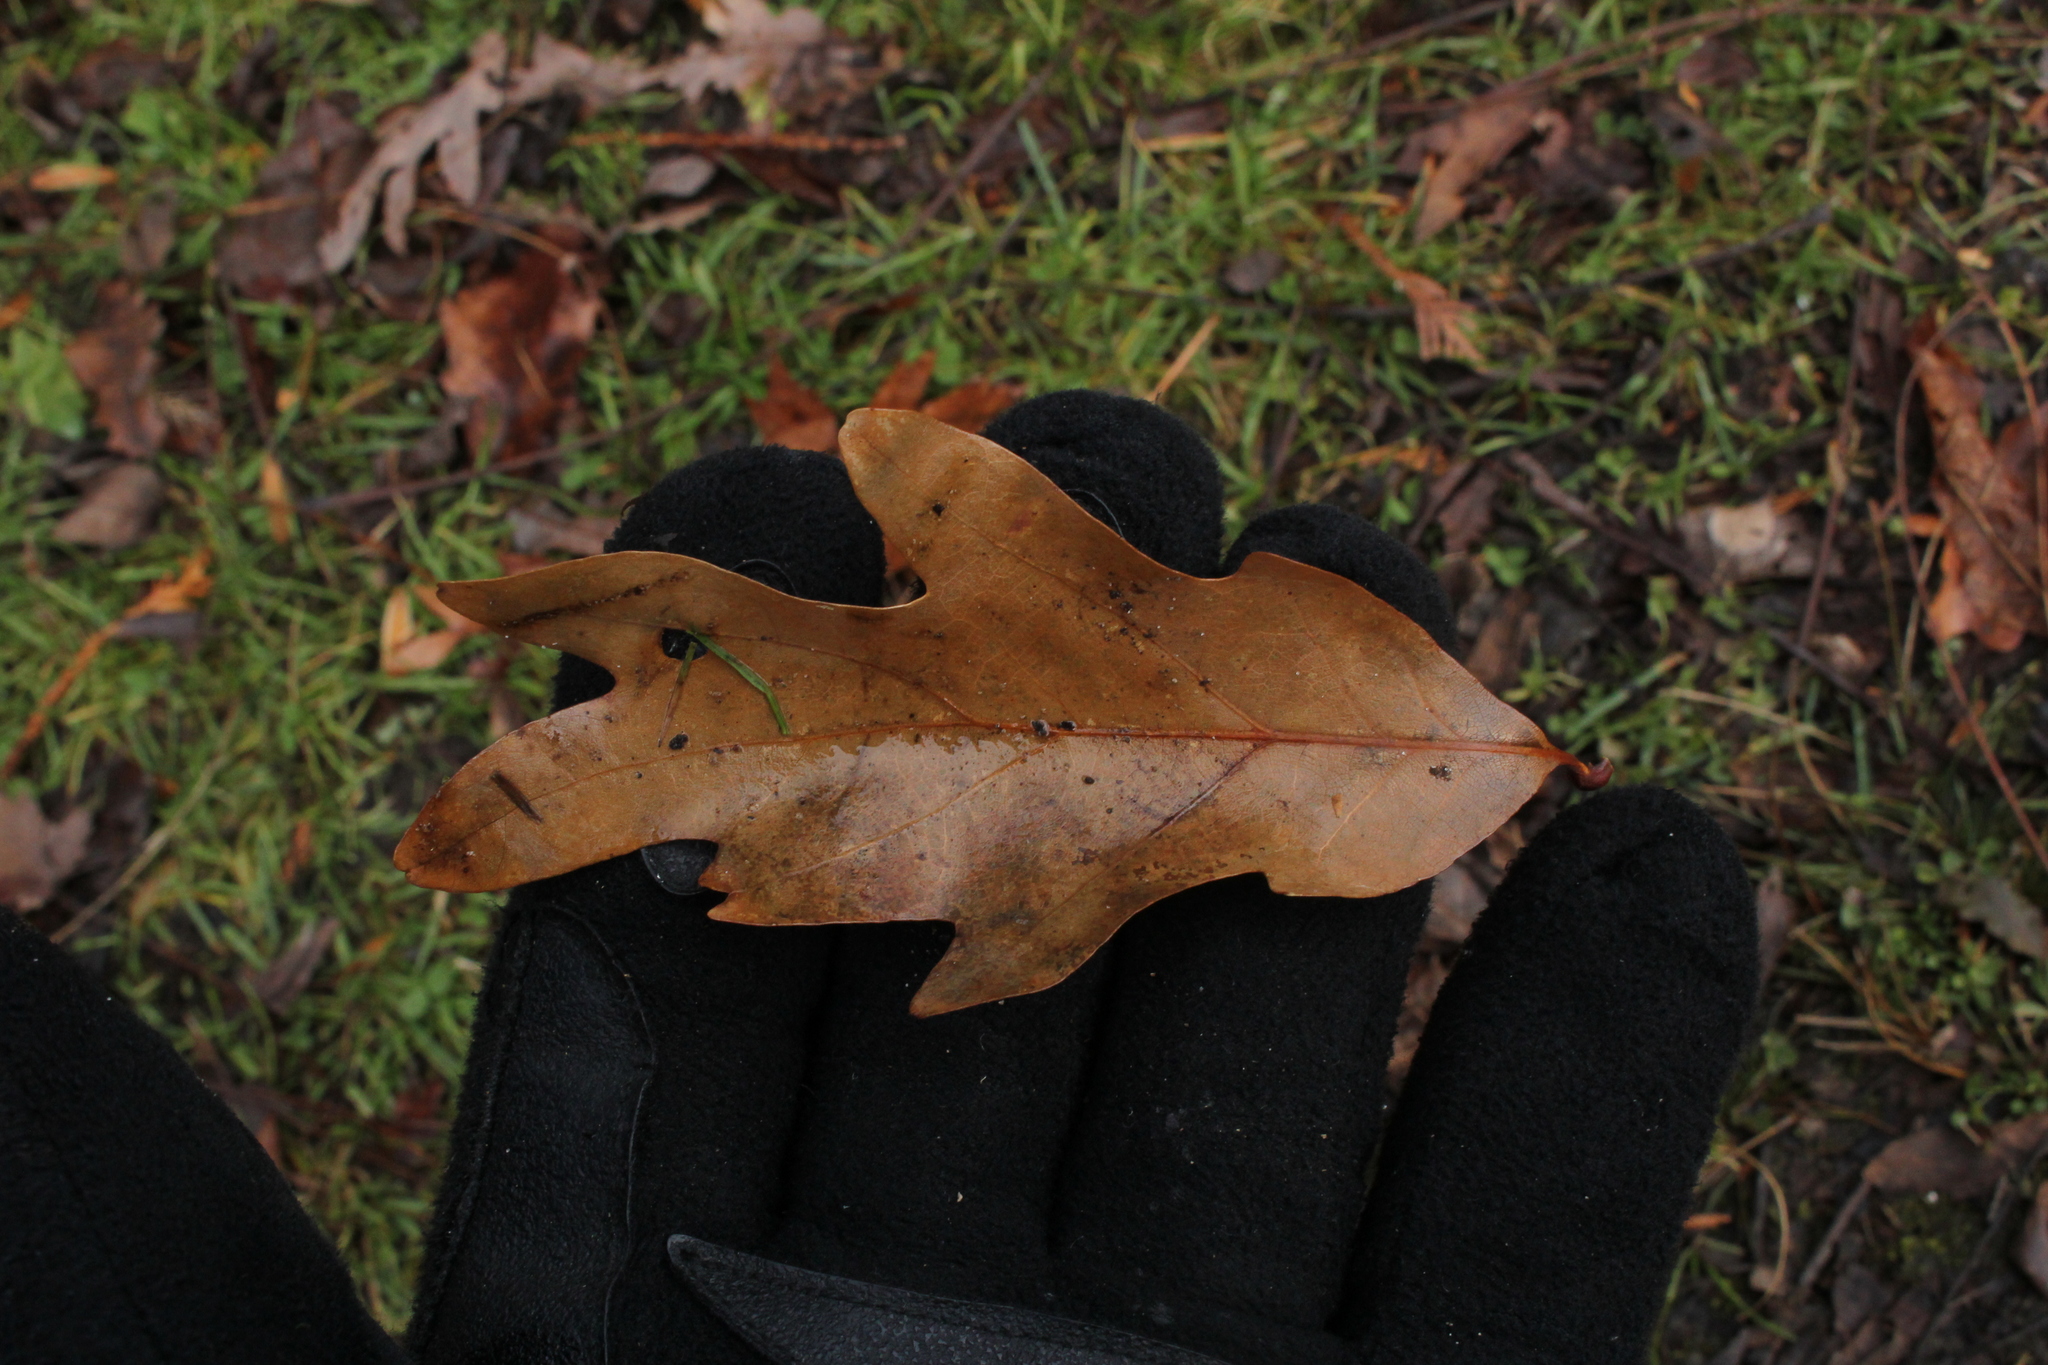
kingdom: Plantae
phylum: Tracheophyta
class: Magnoliopsida
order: Fagales
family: Fagaceae
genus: Quercus
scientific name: Quercus alba
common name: White oak
